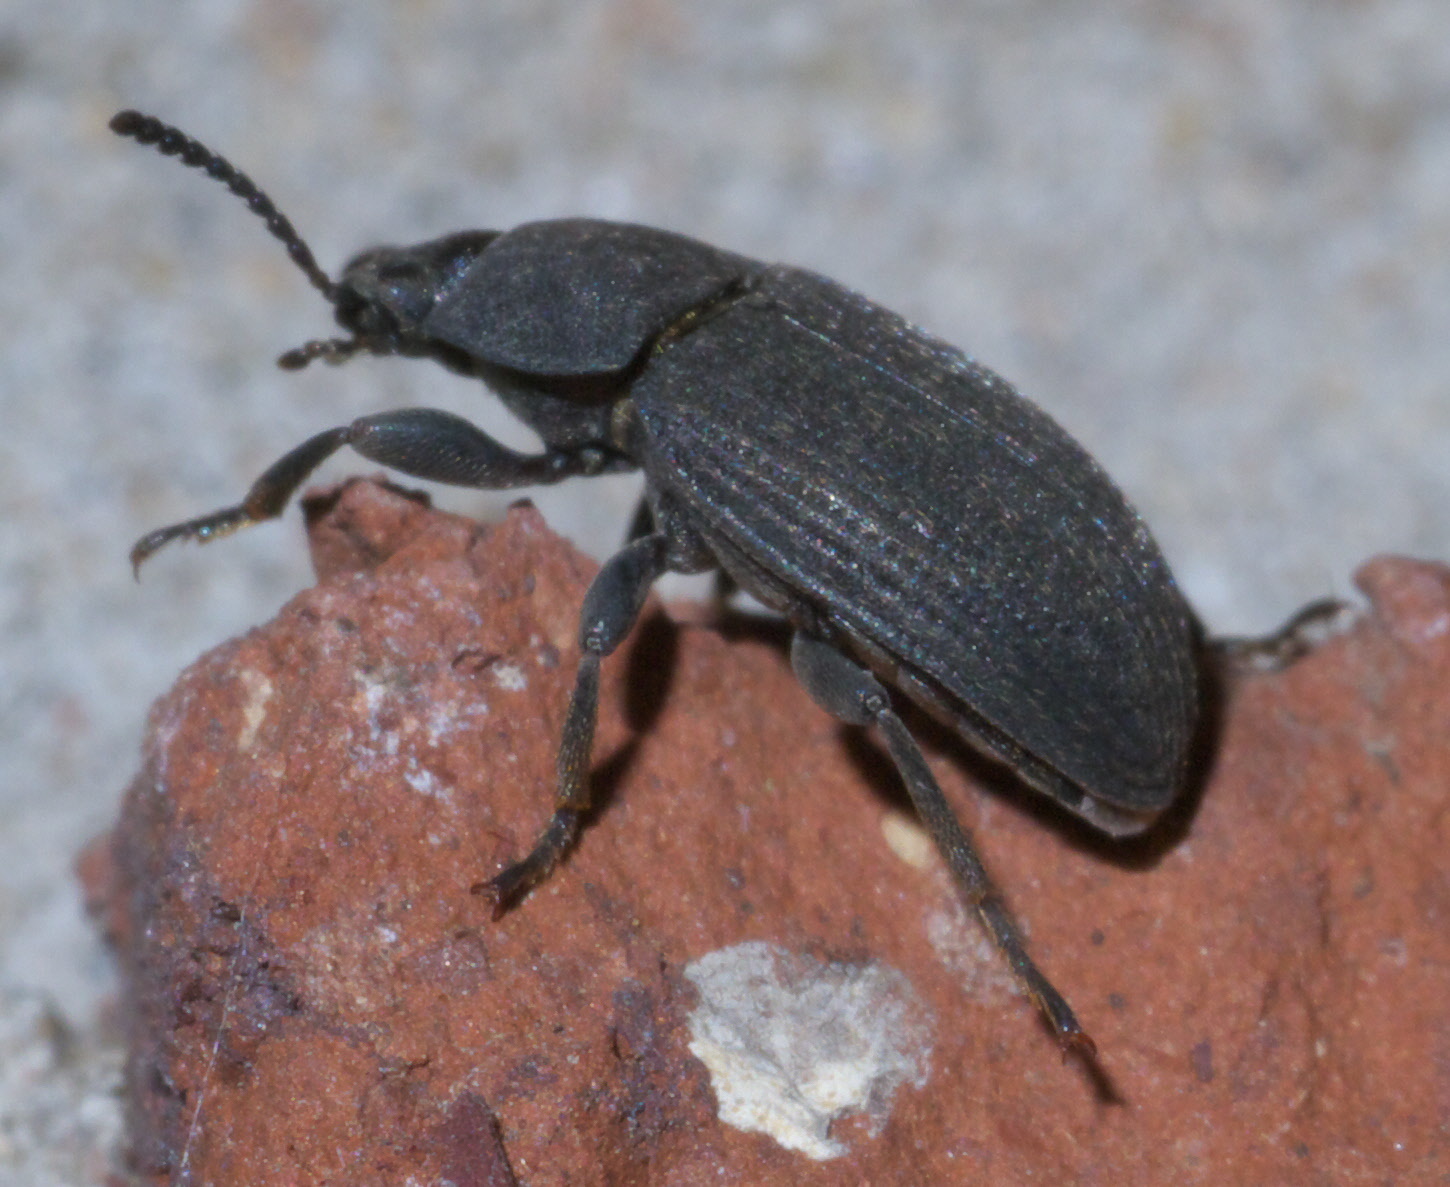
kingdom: Animalia
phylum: Arthropoda
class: Insecta
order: Coleoptera
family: Tenebrionidae
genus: Blapstinus
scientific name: Blapstinus fortis
